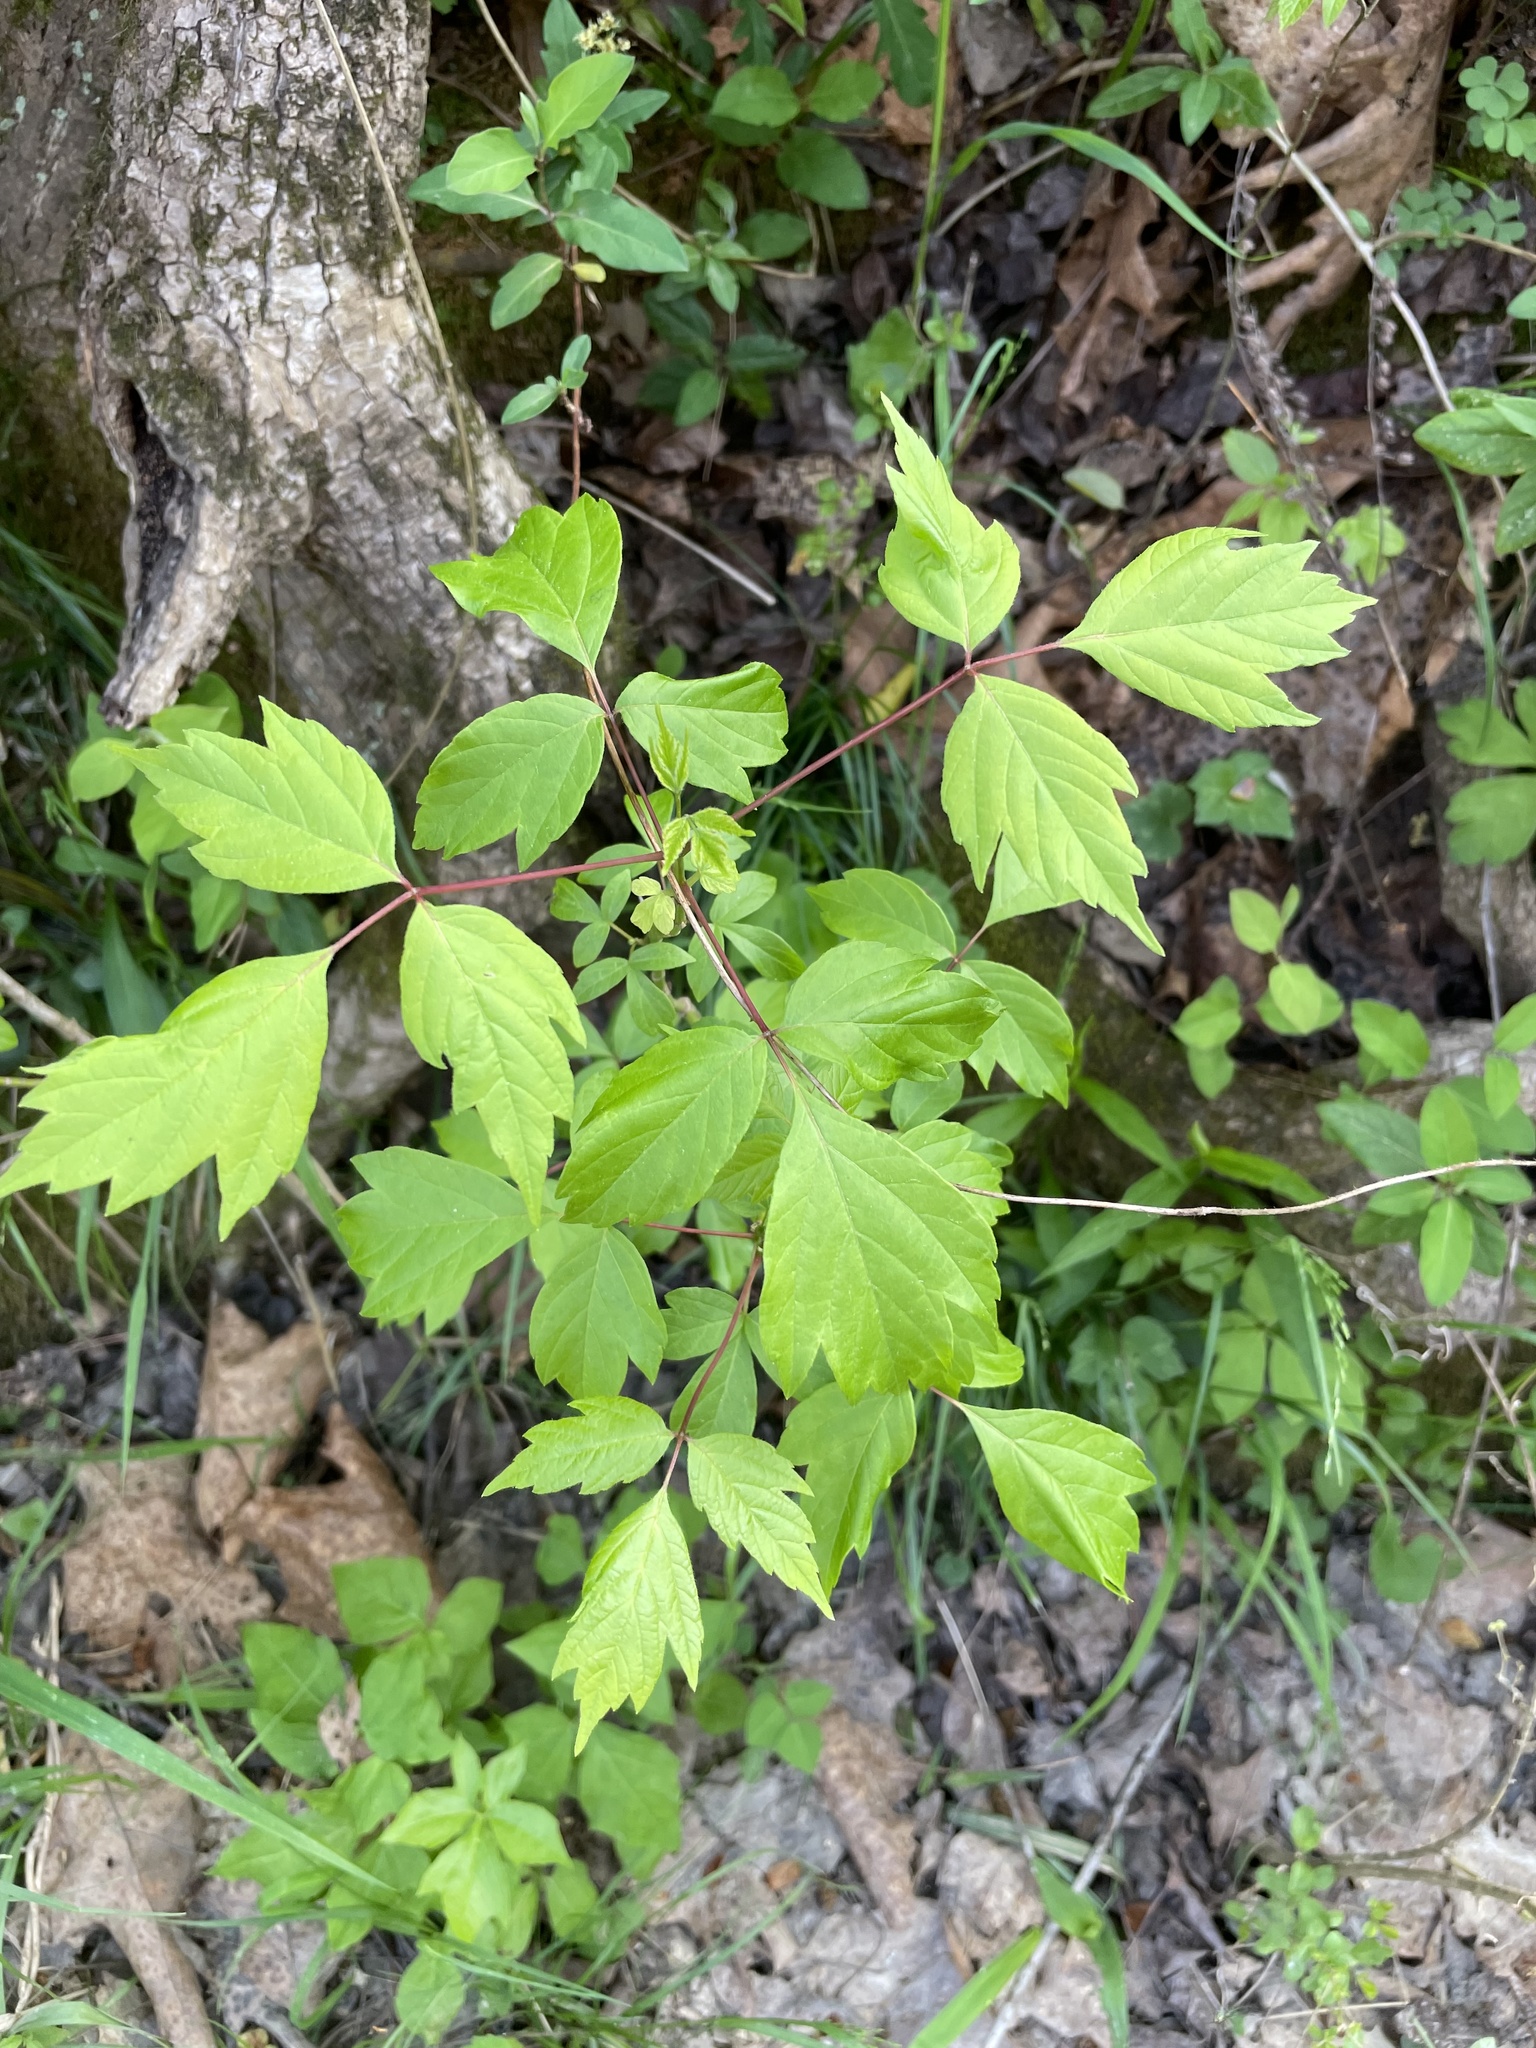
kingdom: Plantae
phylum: Tracheophyta
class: Magnoliopsida
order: Sapindales
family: Sapindaceae
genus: Acer
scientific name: Acer negundo
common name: Ashleaf maple
